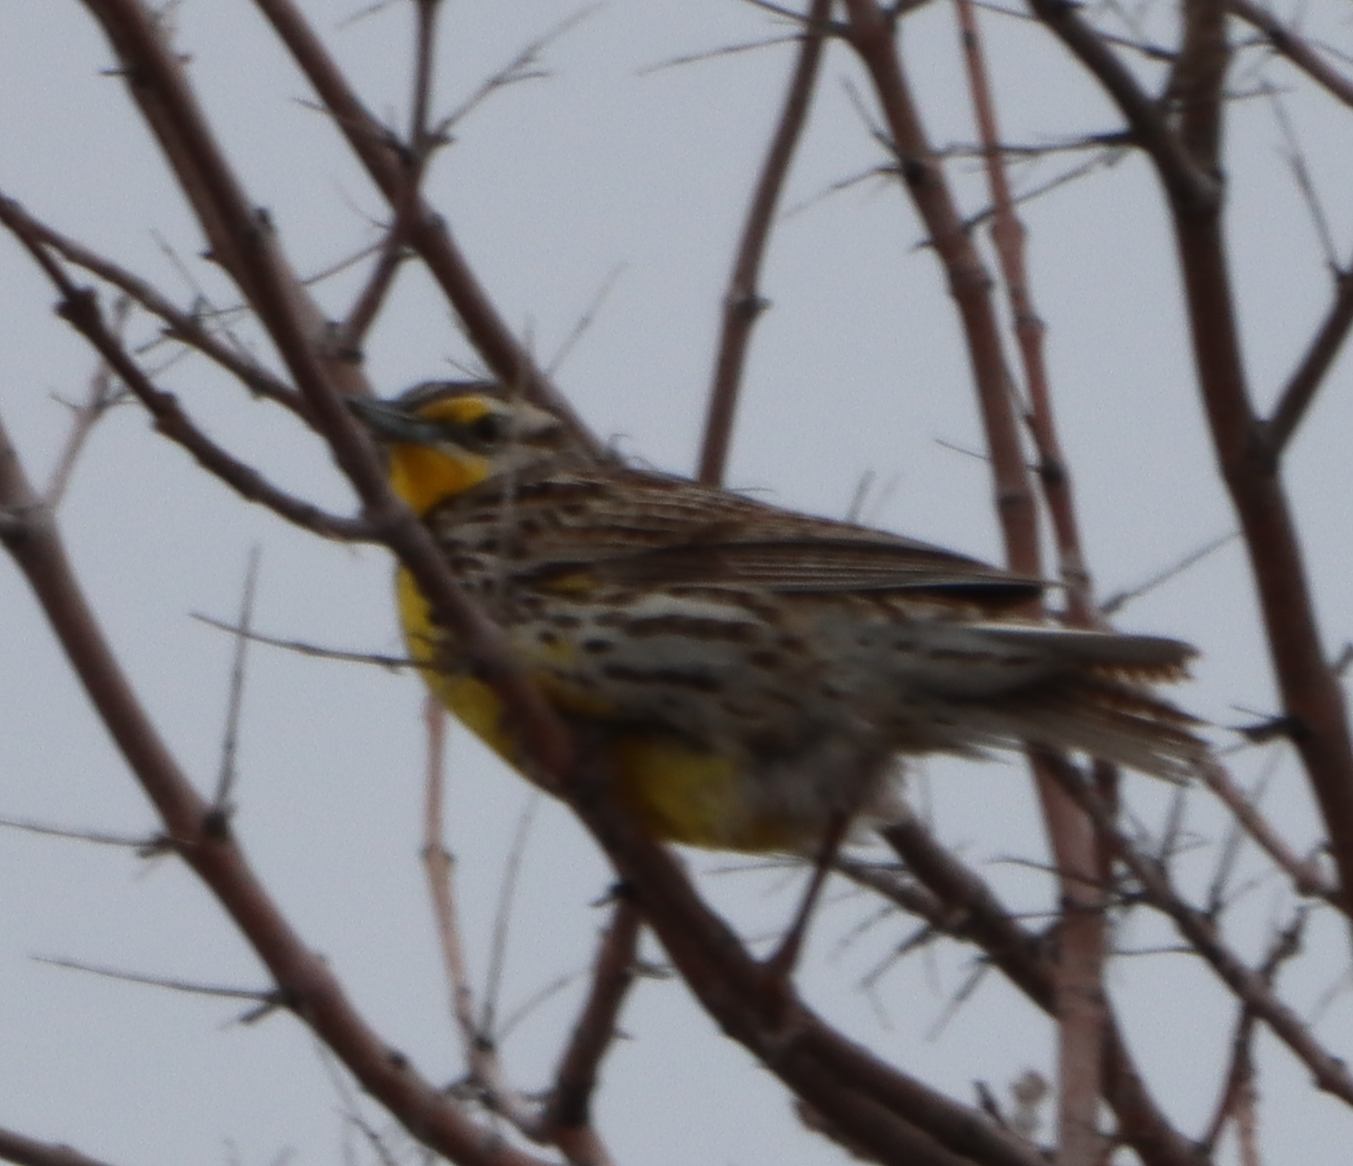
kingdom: Animalia
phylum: Chordata
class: Aves
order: Passeriformes
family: Icteridae
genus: Sturnella
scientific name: Sturnella neglecta
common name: Western meadowlark
